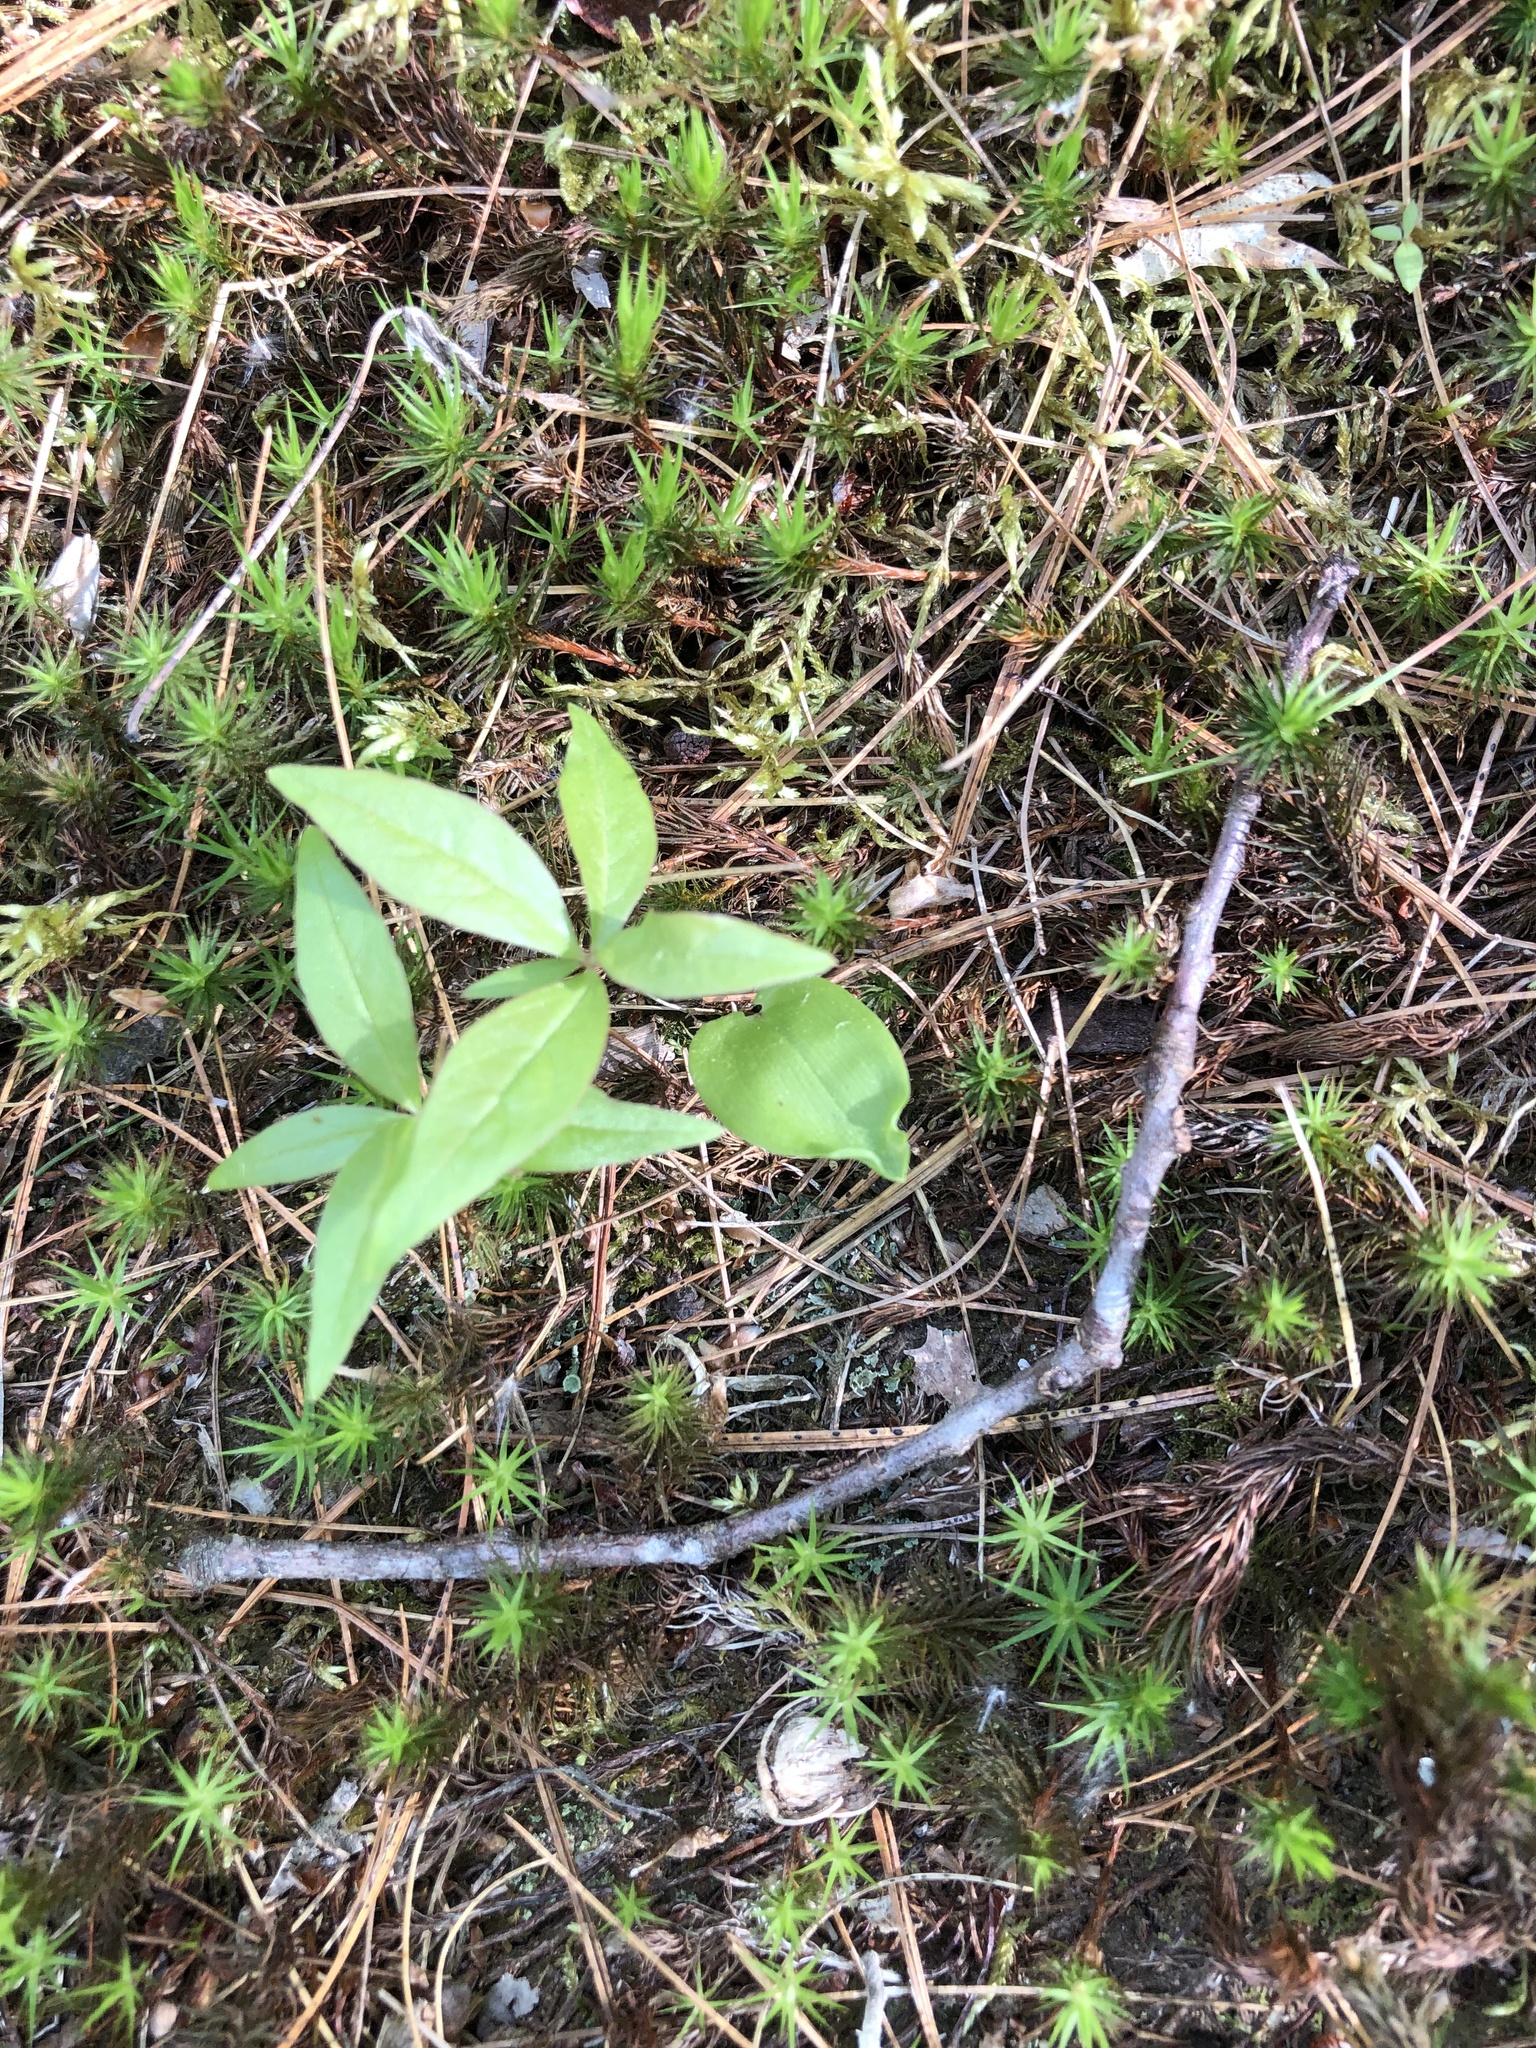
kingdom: Plantae
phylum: Tracheophyta
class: Magnoliopsida
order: Ericales
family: Primulaceae
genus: Lysimachia
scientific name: Lysimachia borealis
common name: American starflower
